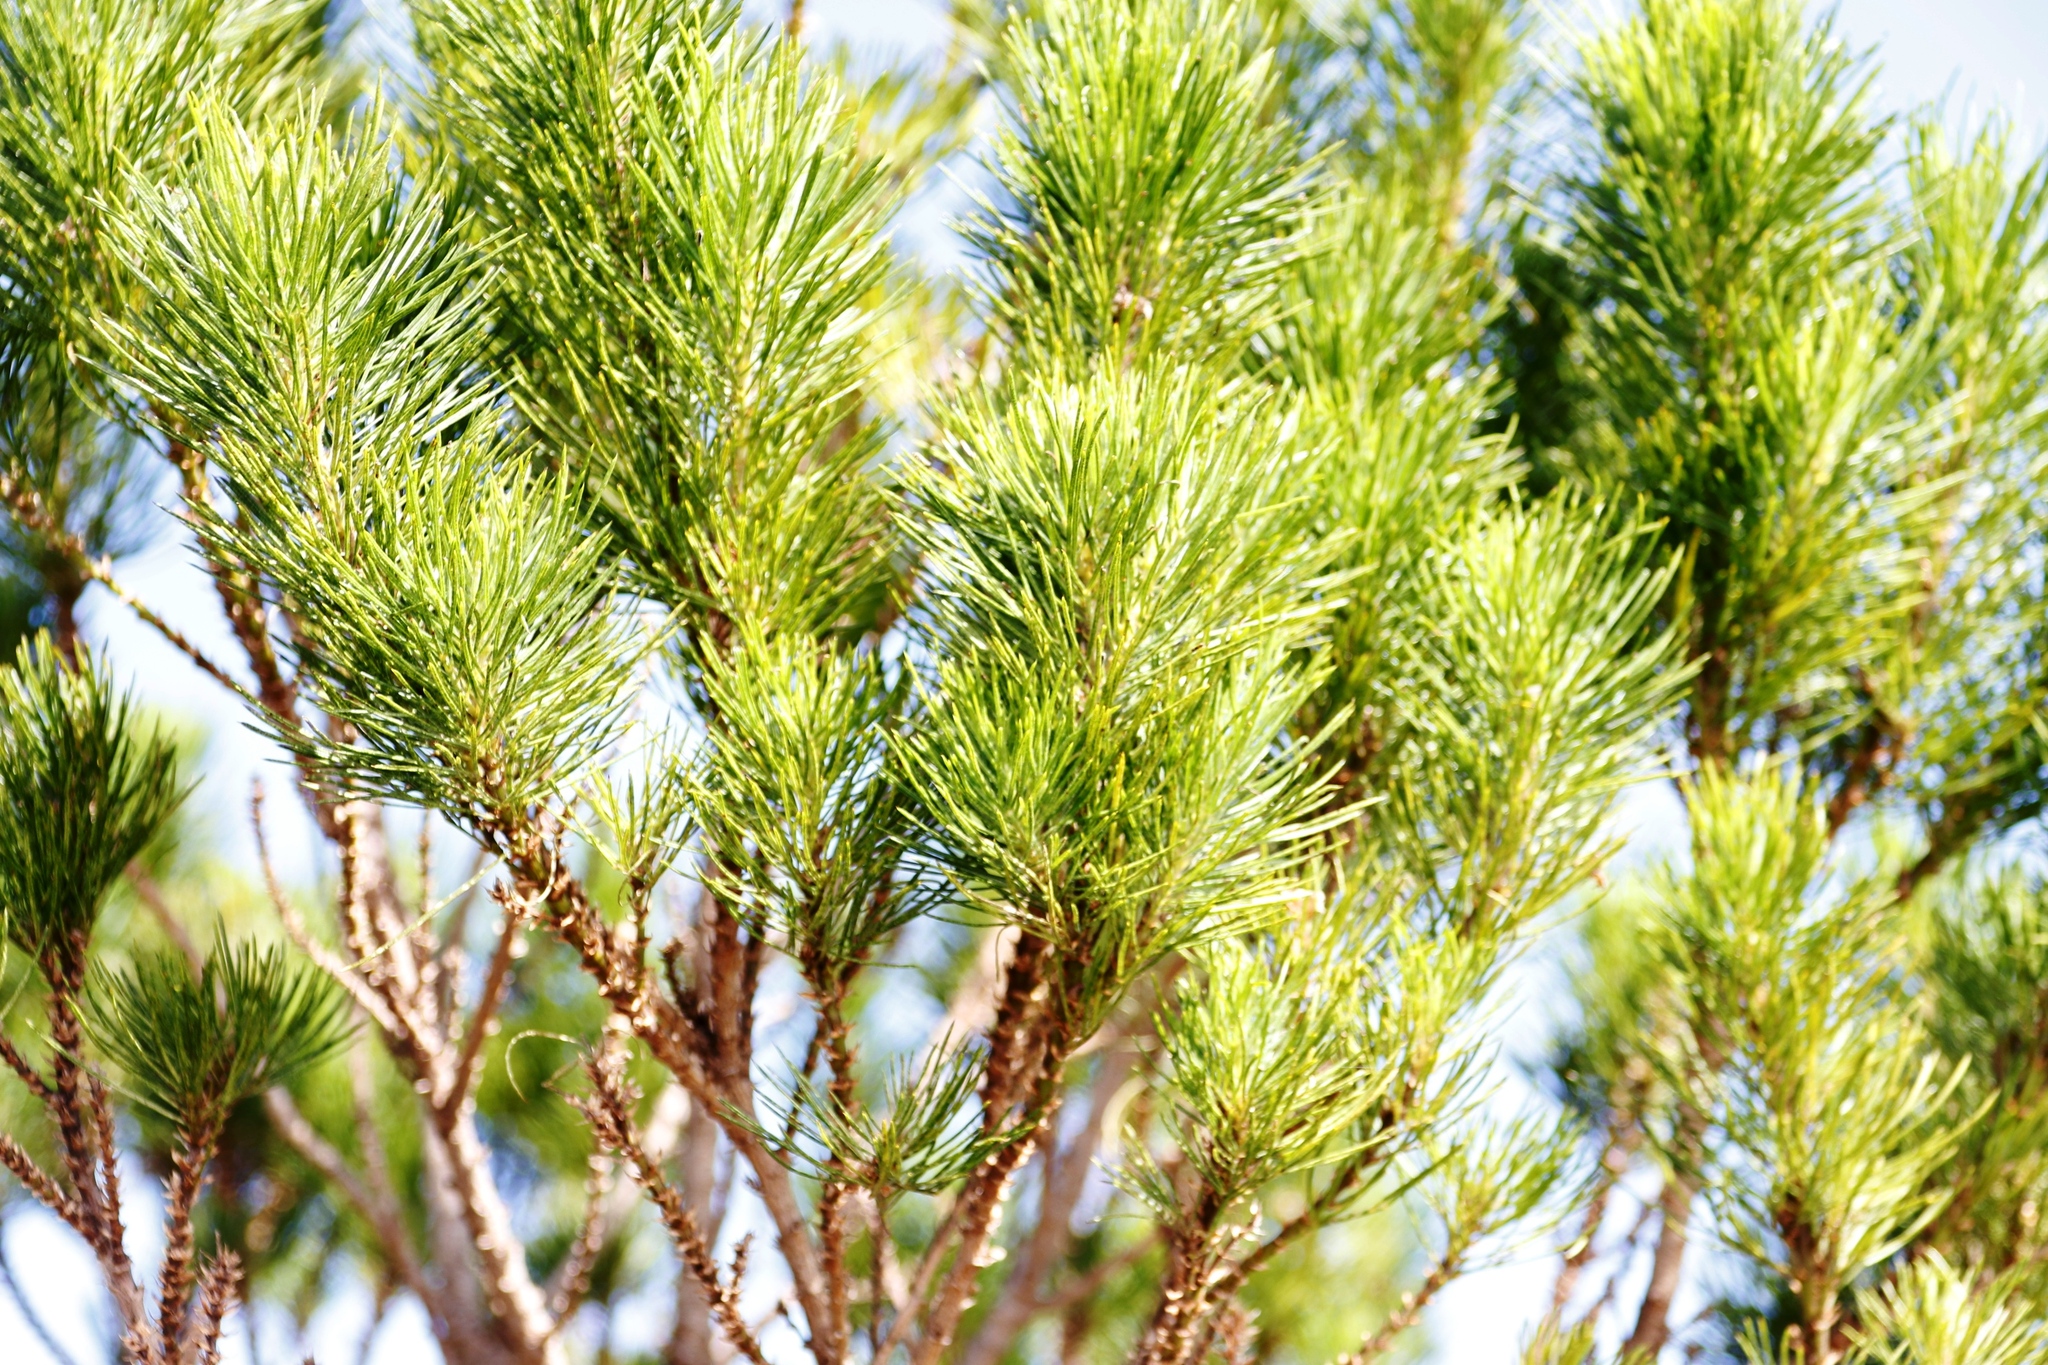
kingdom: Plantae
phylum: Tracheophyta
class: Magnoliopsida
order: Fabales
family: Fabaceae
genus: Psoralea
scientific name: Psoralea pinnata
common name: African scurfpea
